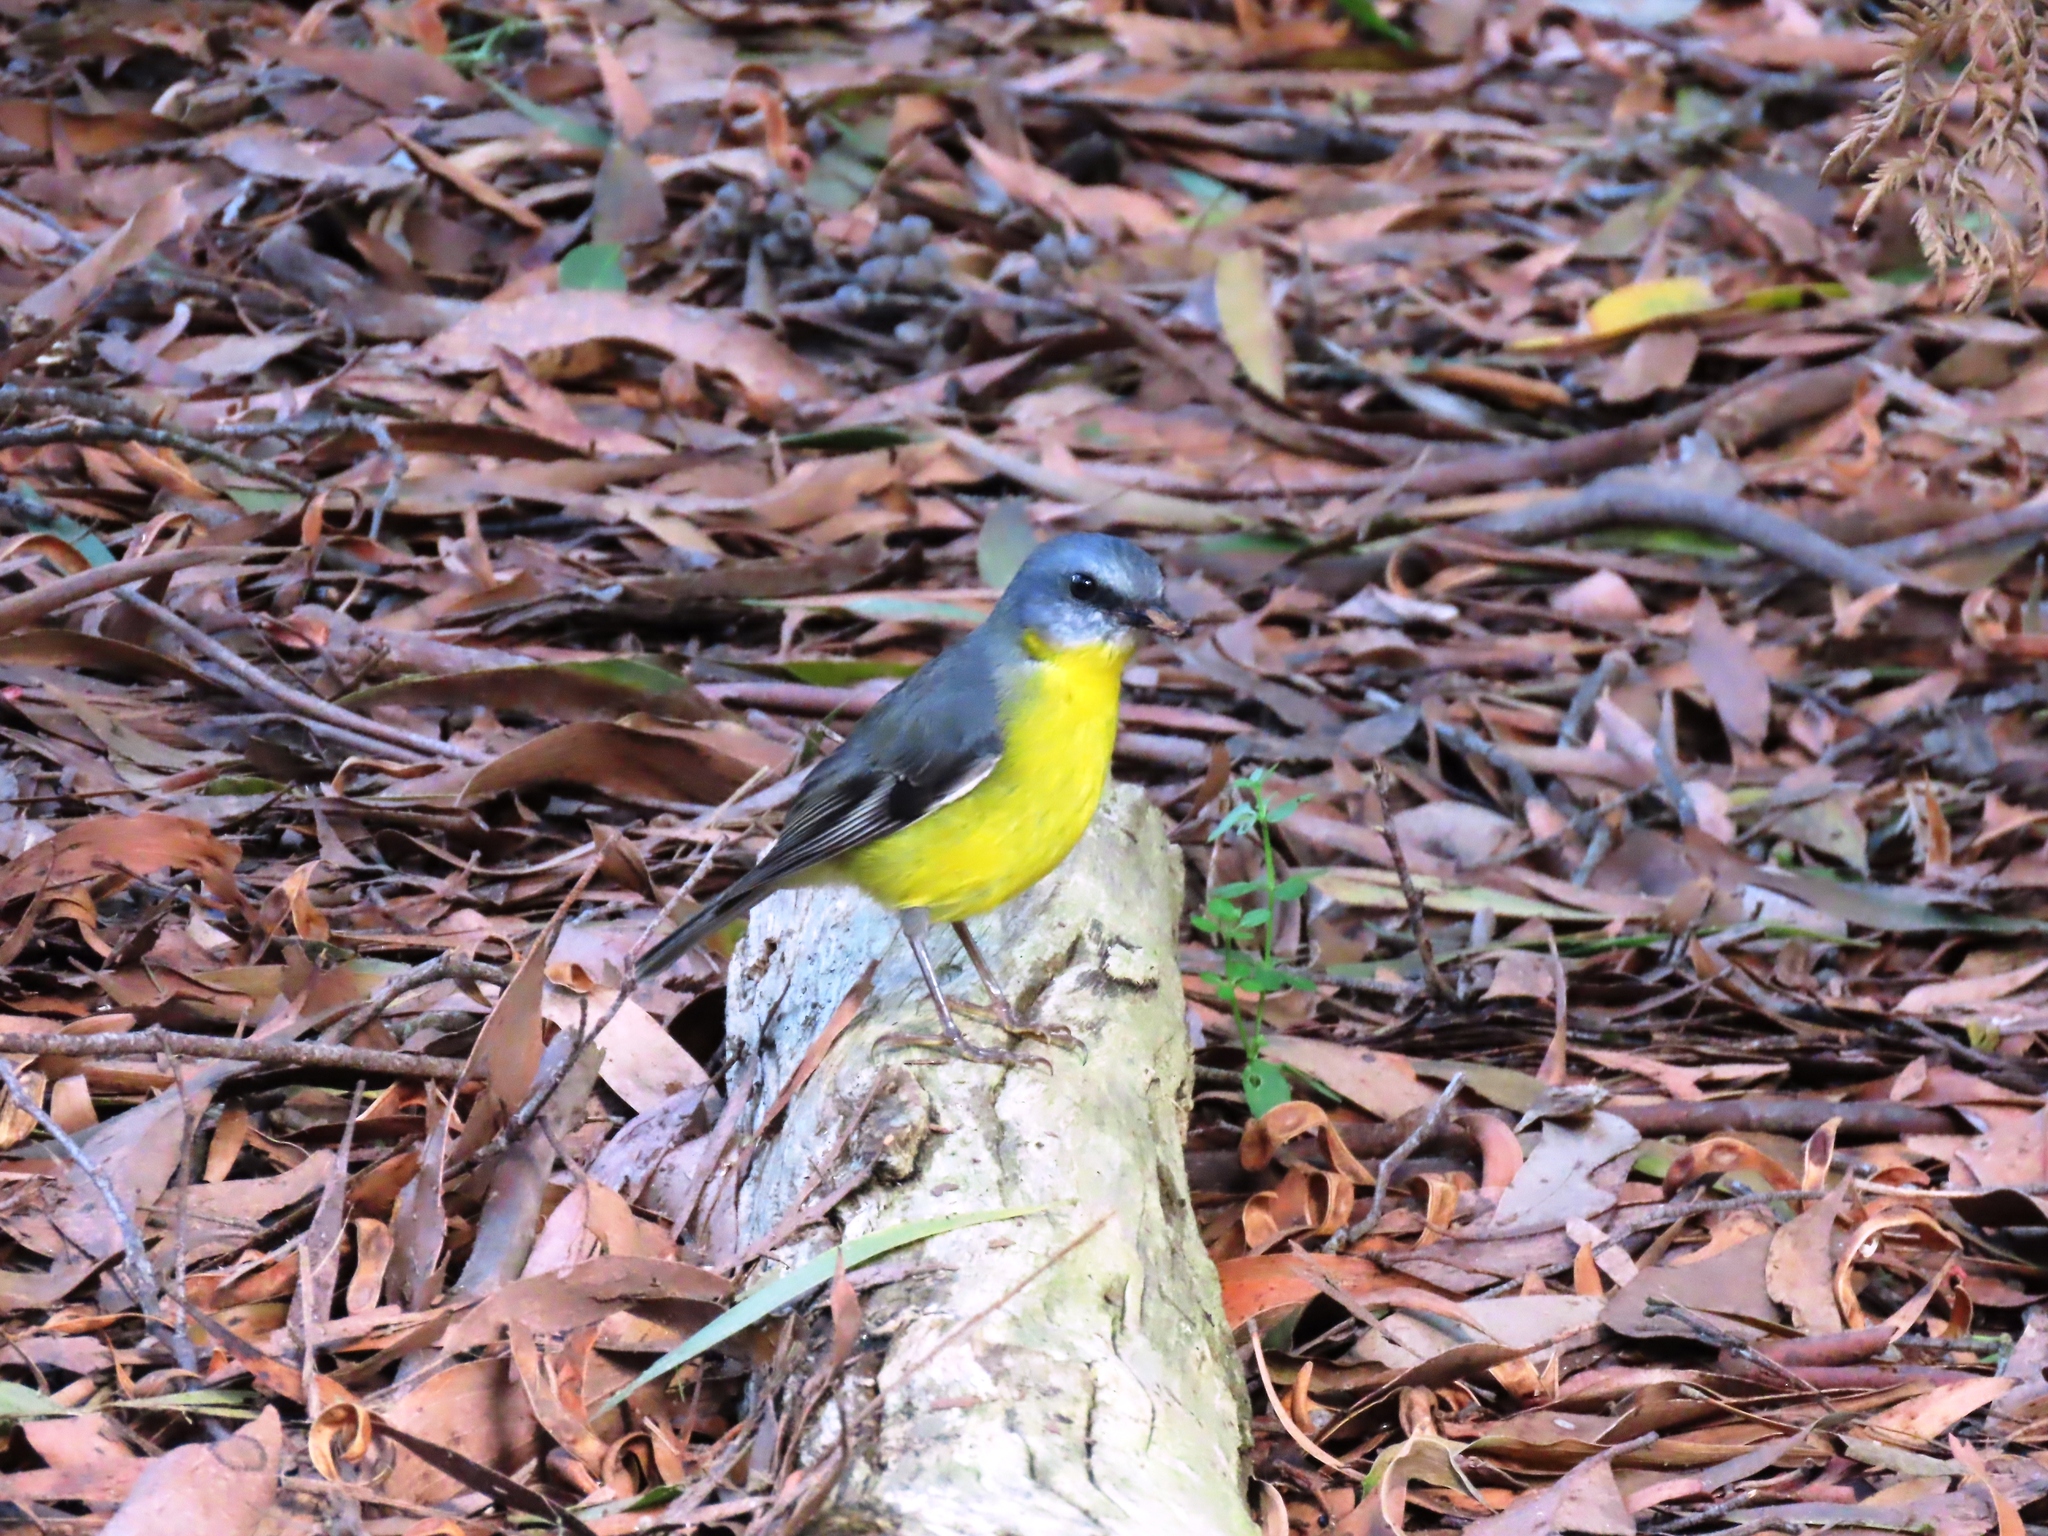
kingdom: Animalia
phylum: Chordata
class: Aves
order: Passeriformes
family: Petroicidae
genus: Eopsaltria
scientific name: Eopsaltria australis
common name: Eastern yellow robin
